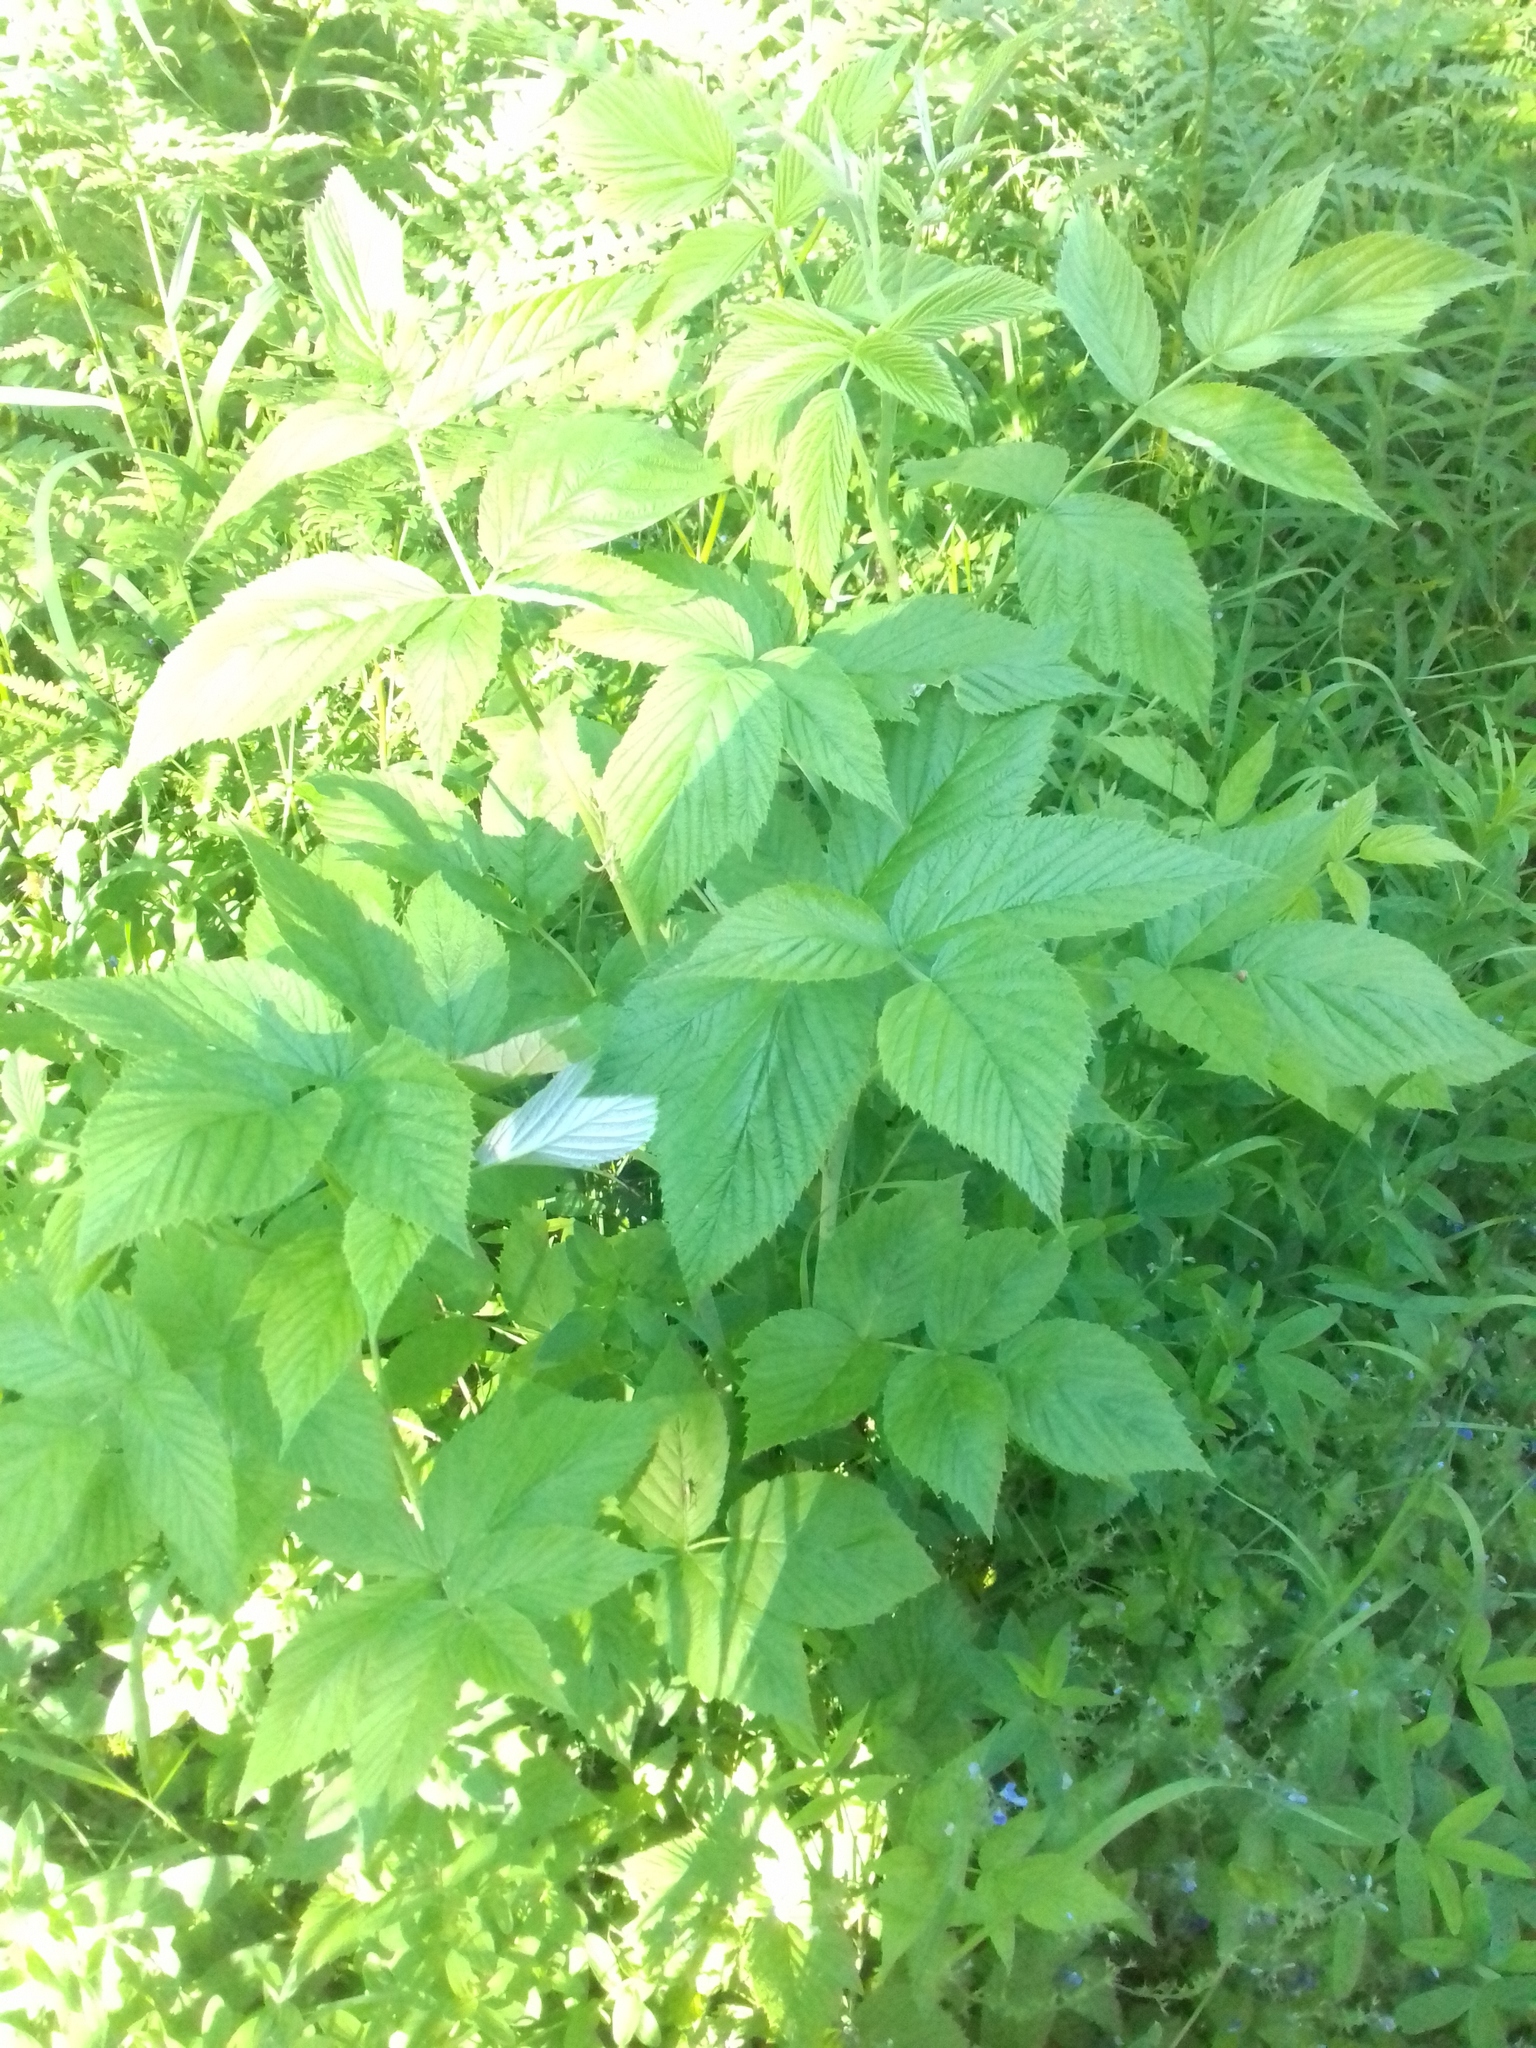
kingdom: Plantae
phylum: Tracheophyta
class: Magnoliopsida
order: Rosales
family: Rosaceae
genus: Rubus
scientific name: Rubus idaeus
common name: Raspberry
